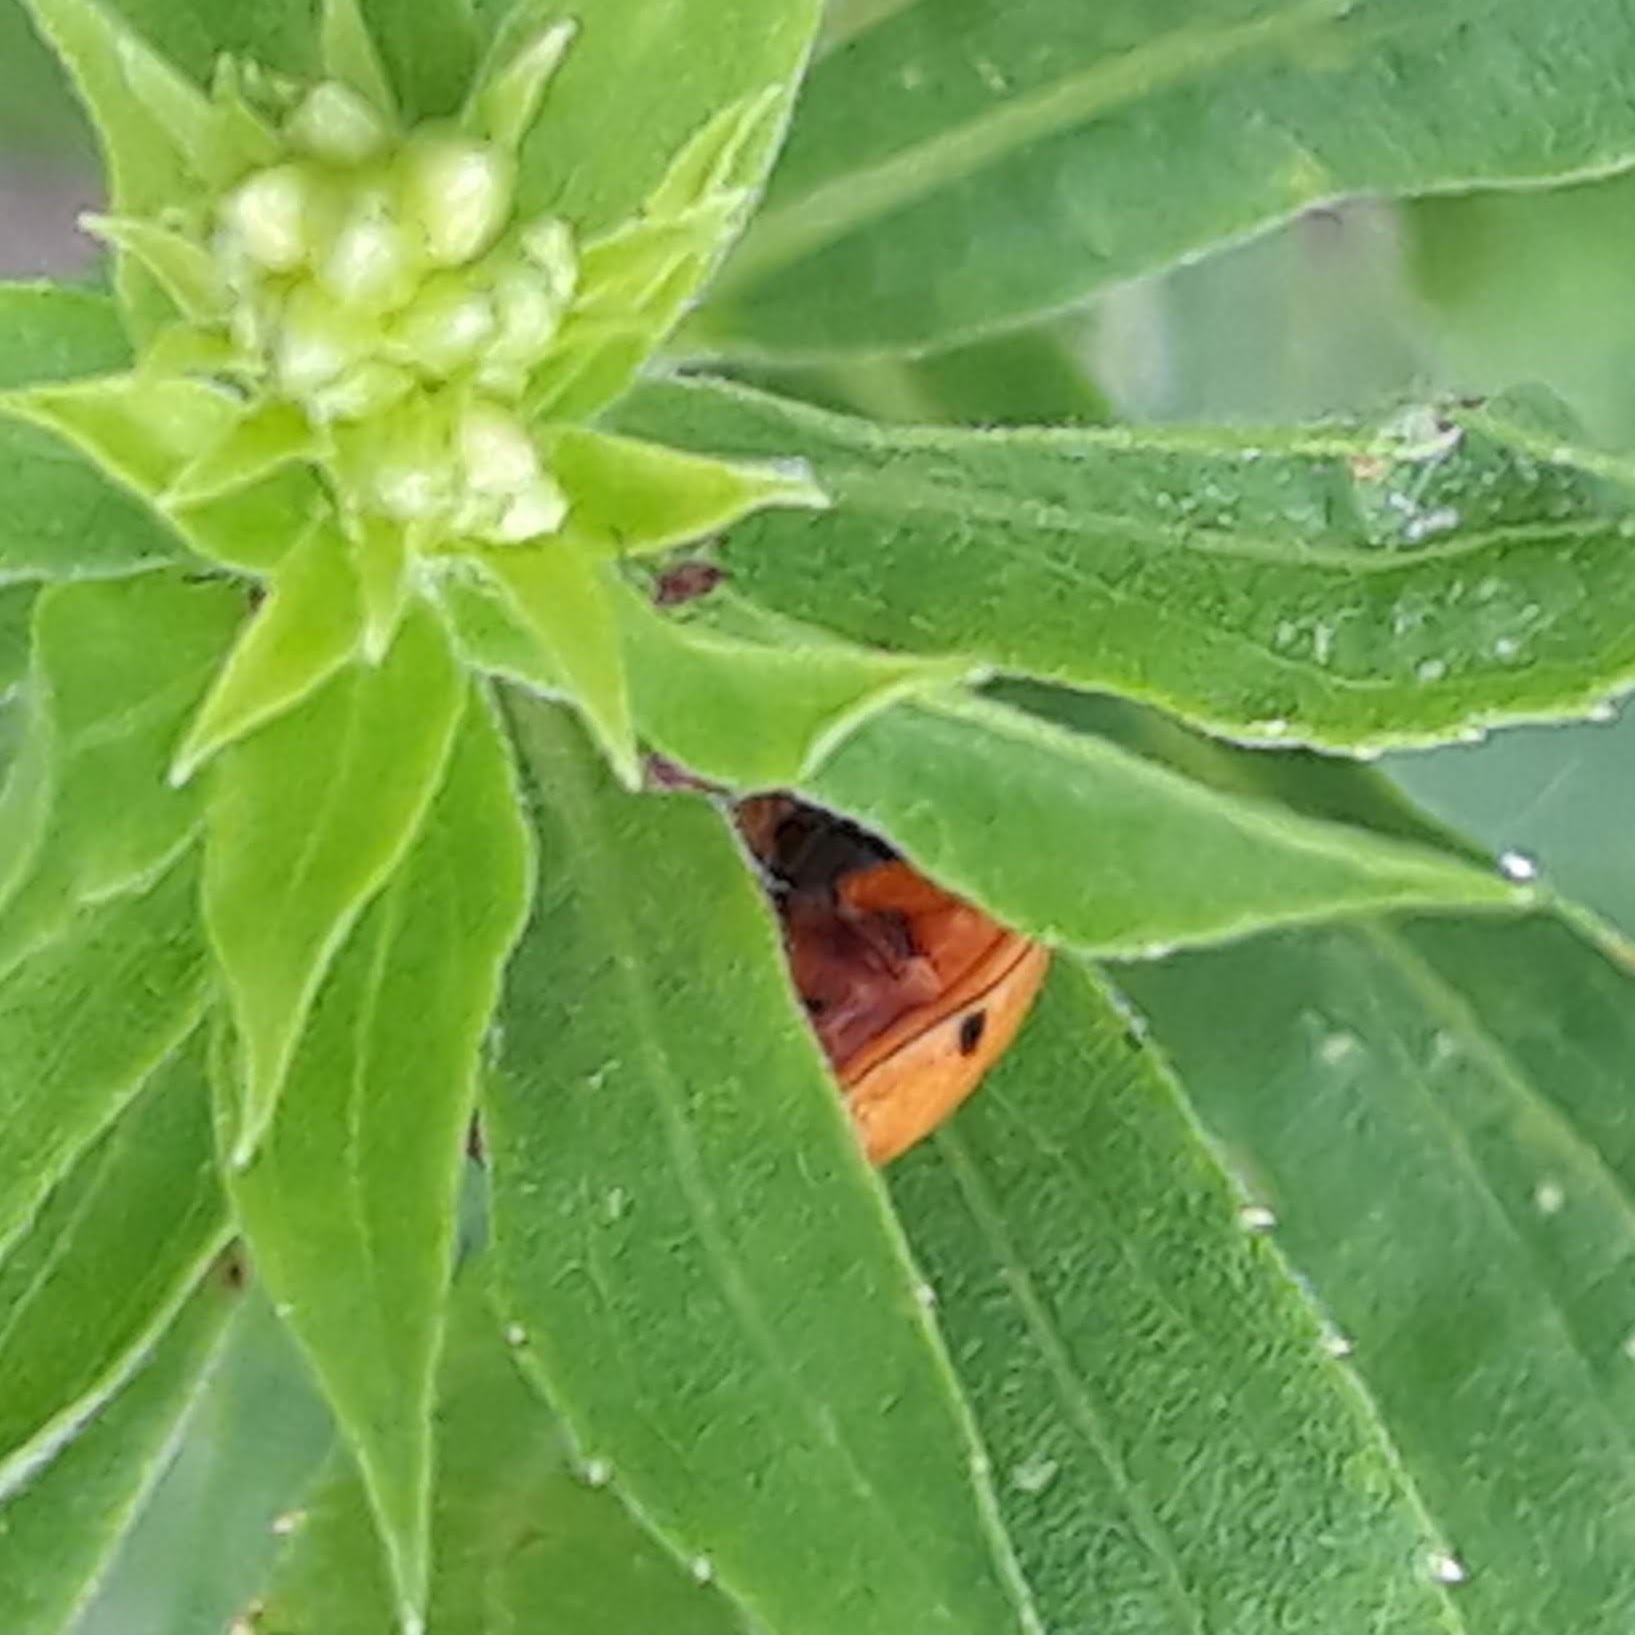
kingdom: Animalia
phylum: Arthropoda
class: Insecta
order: Coleoptera
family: Coccinellidae
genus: Harmonia
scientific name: Harmonia axyridis
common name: Harlequin ladybird
